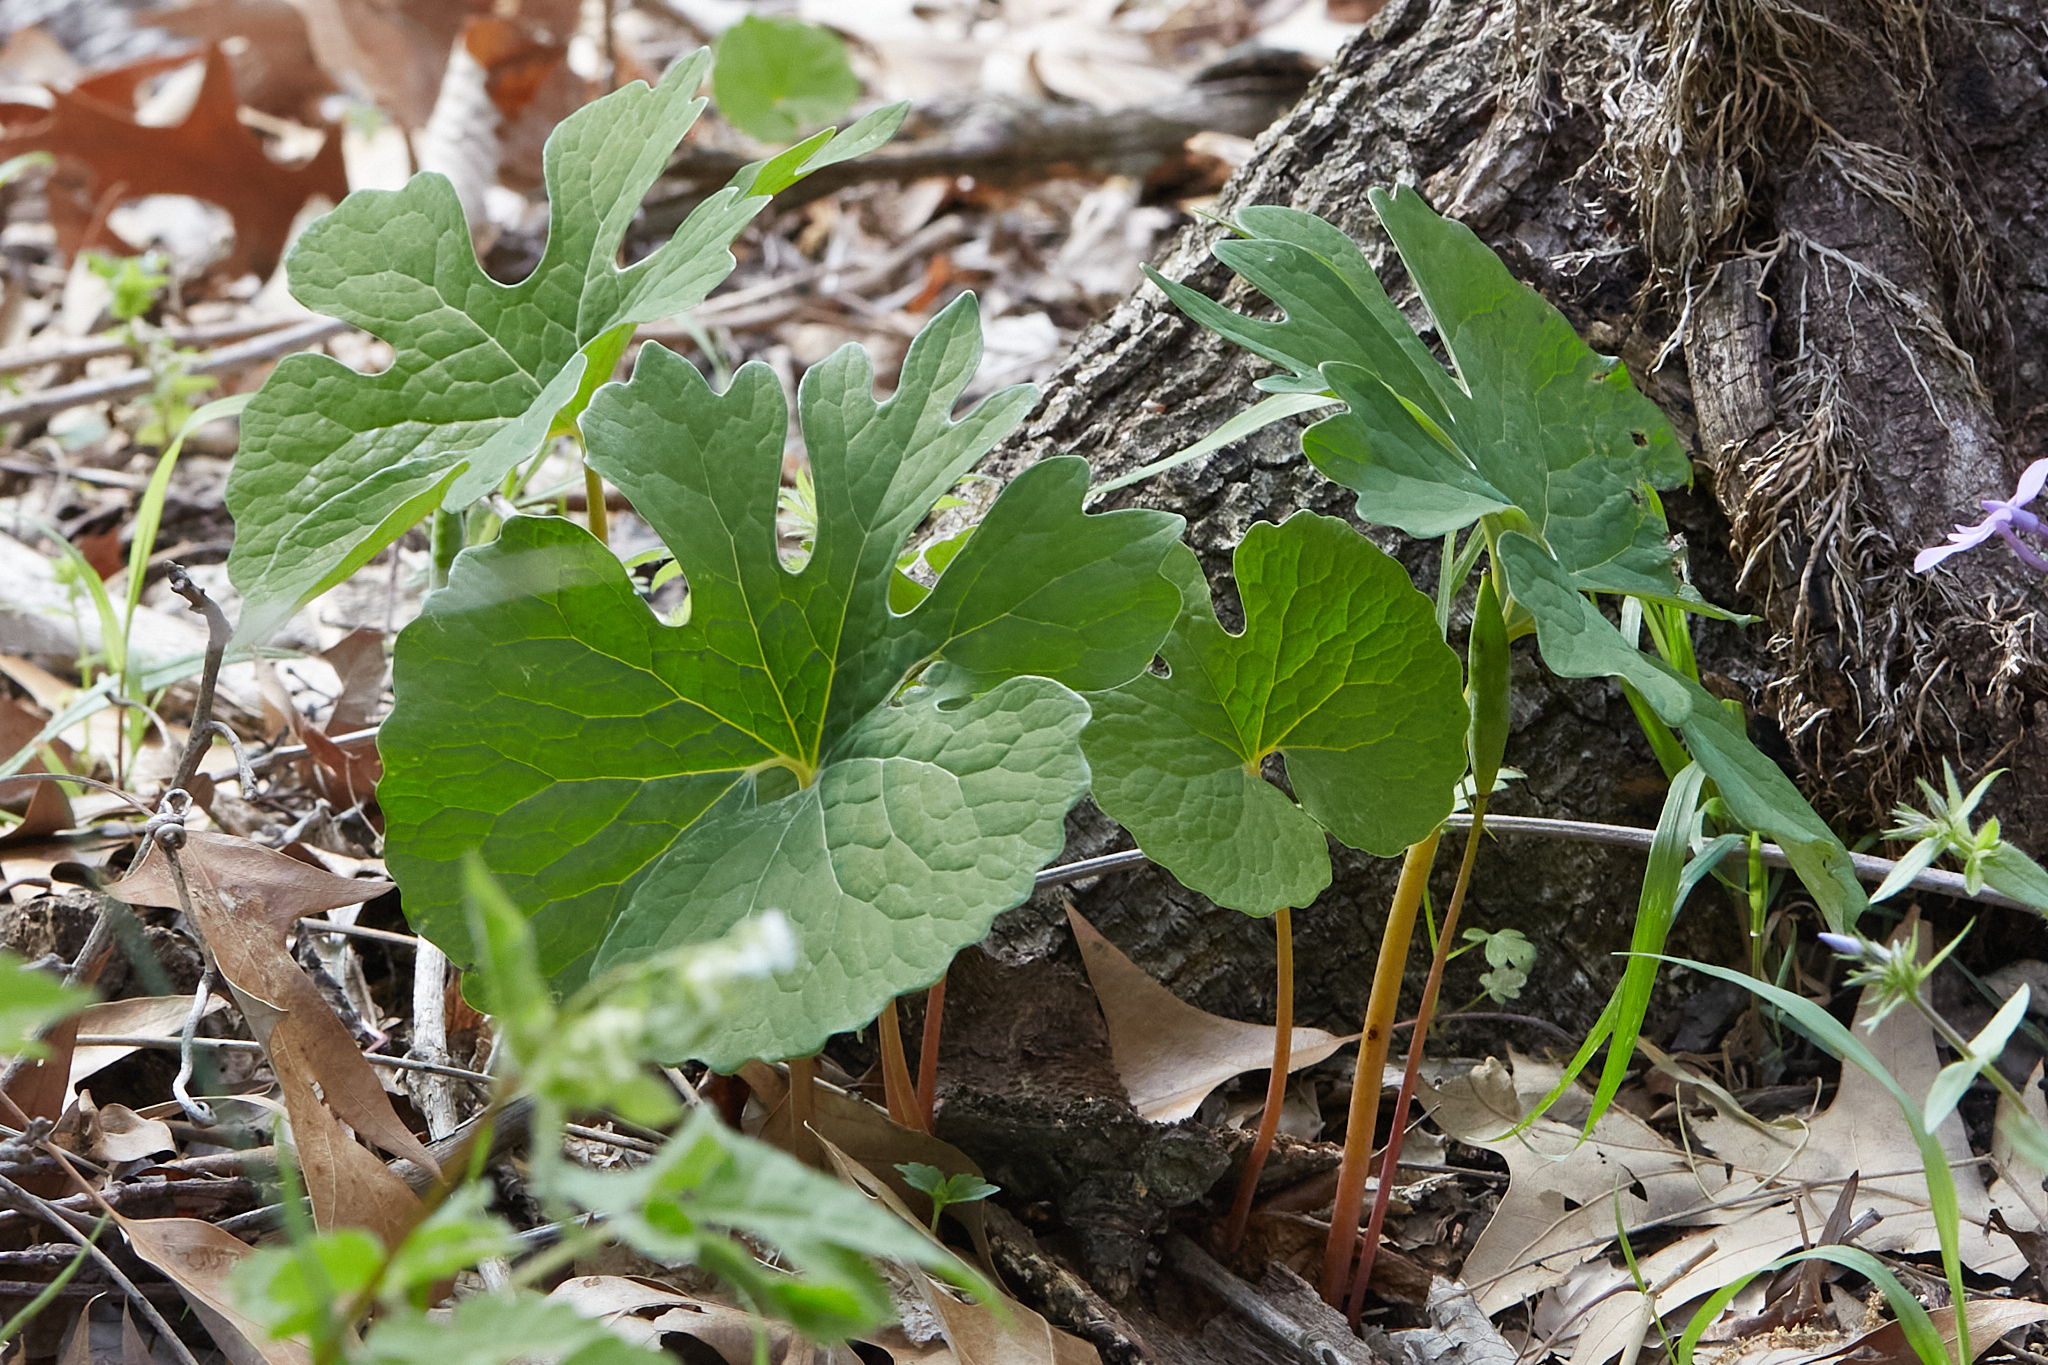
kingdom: Plantae
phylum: Tracheophyta
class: Magnoliopsida
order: Ranunculales
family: Papaveraceae
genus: Sanguinaria
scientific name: Sanguinaria canadensis
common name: Bloodroot
